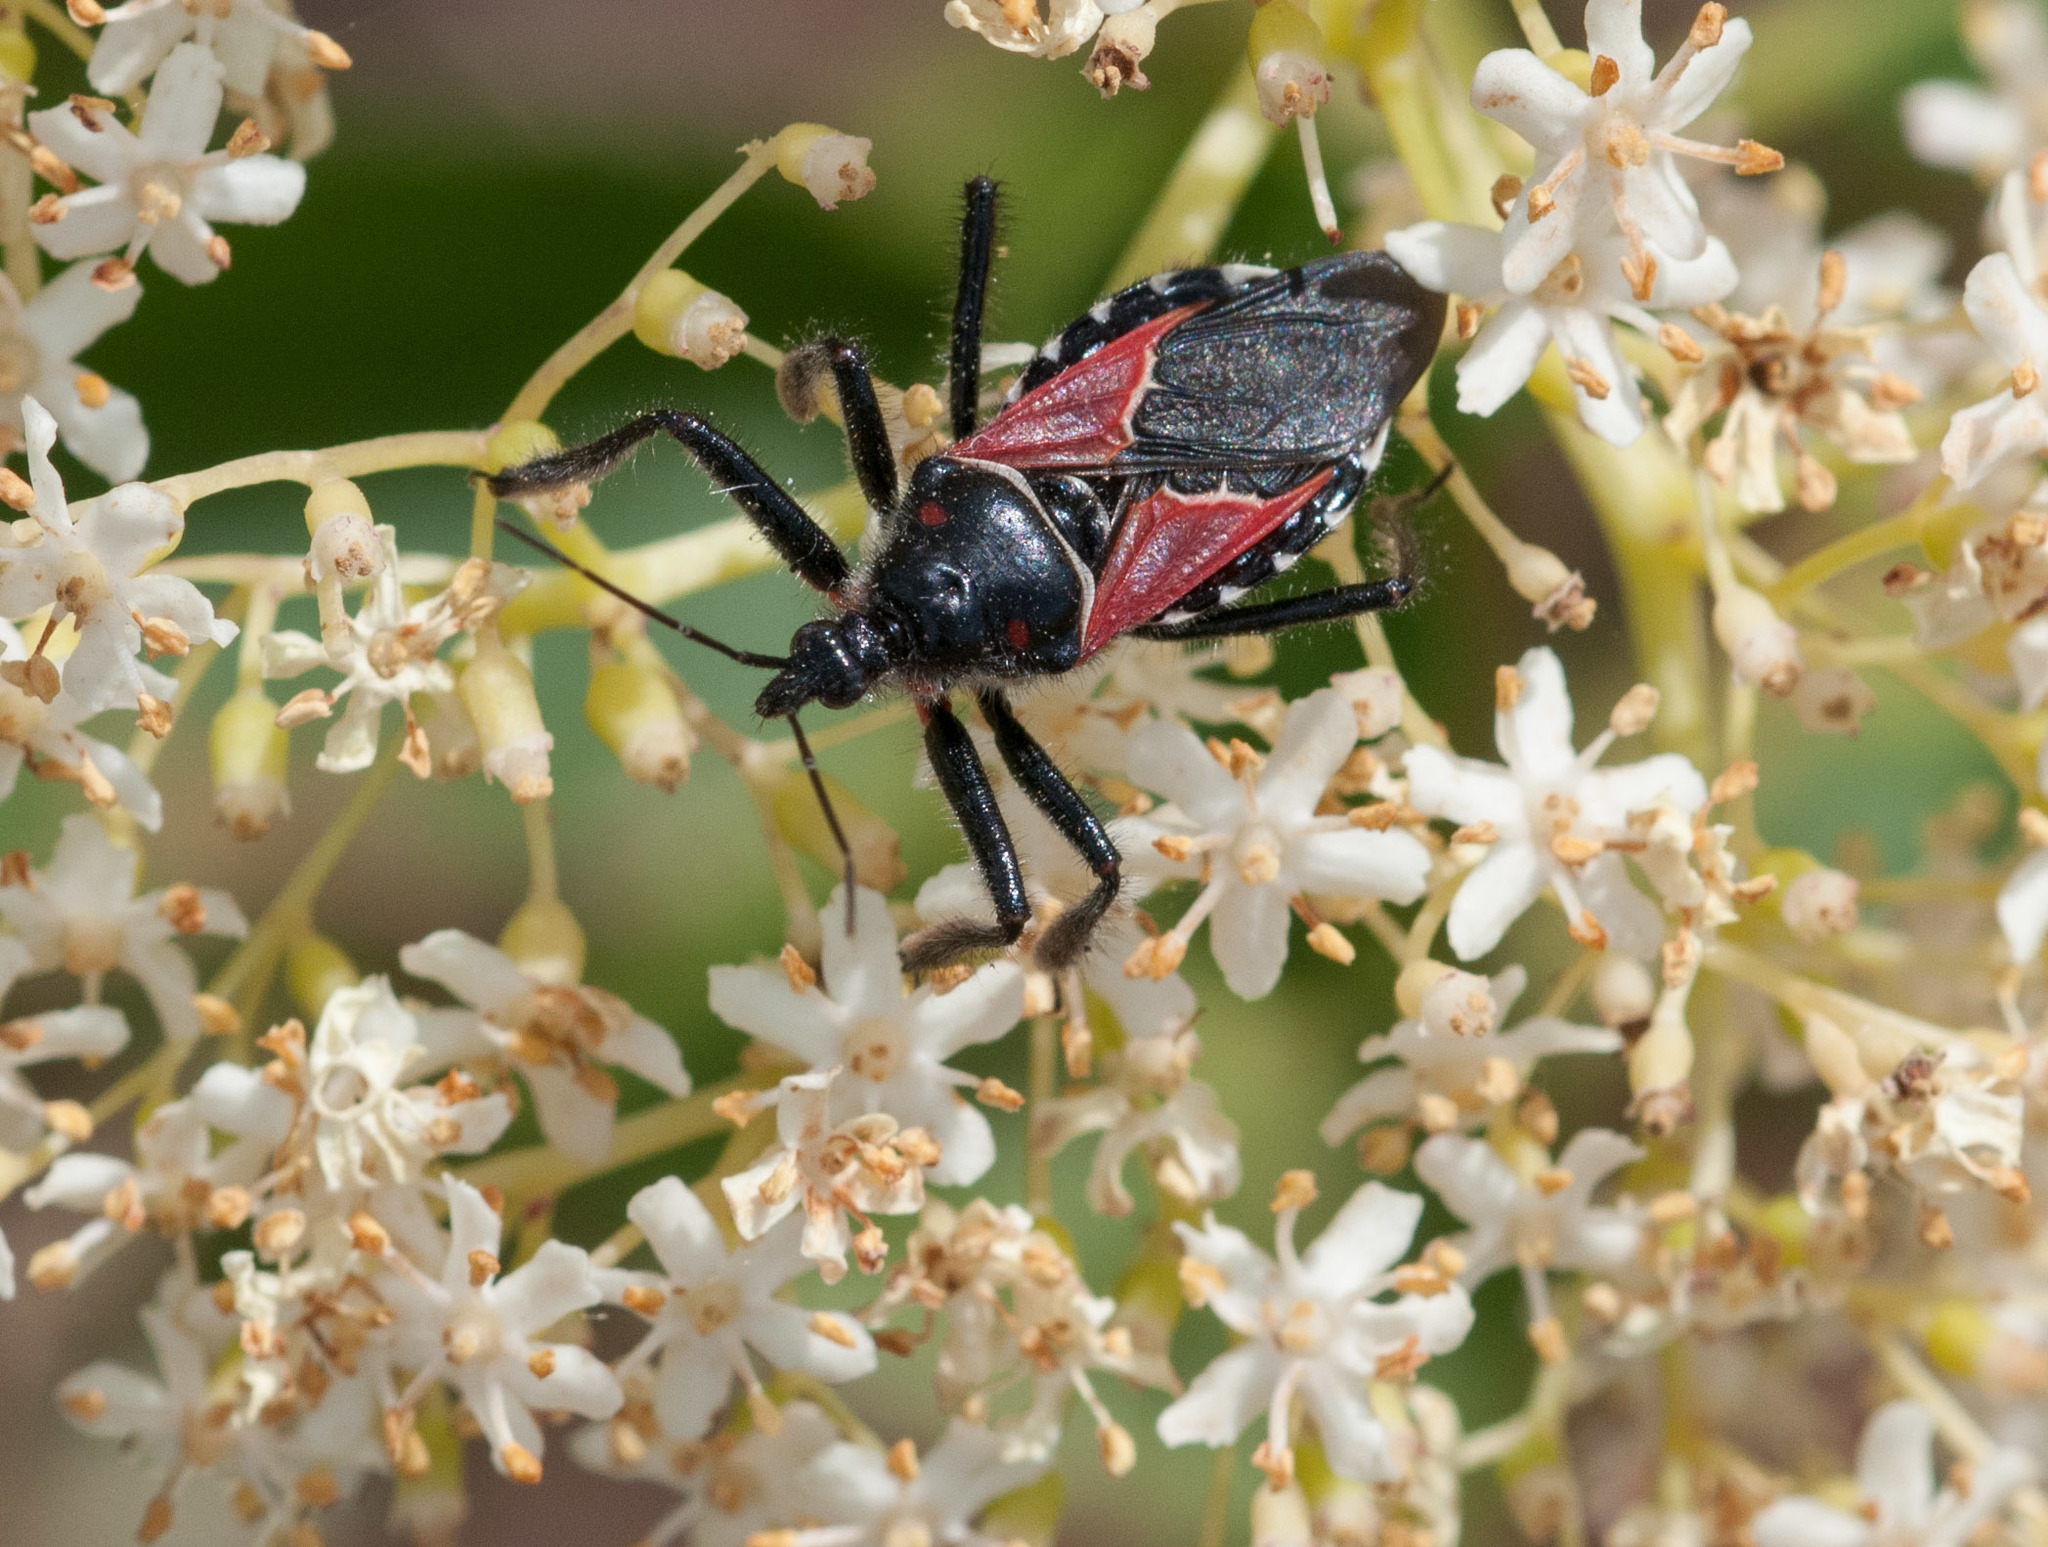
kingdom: Animalia
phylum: Arthropoda
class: Insecta
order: Hemiptera
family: Reduviidae
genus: Apiomerus
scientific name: Apiomerus montanus
